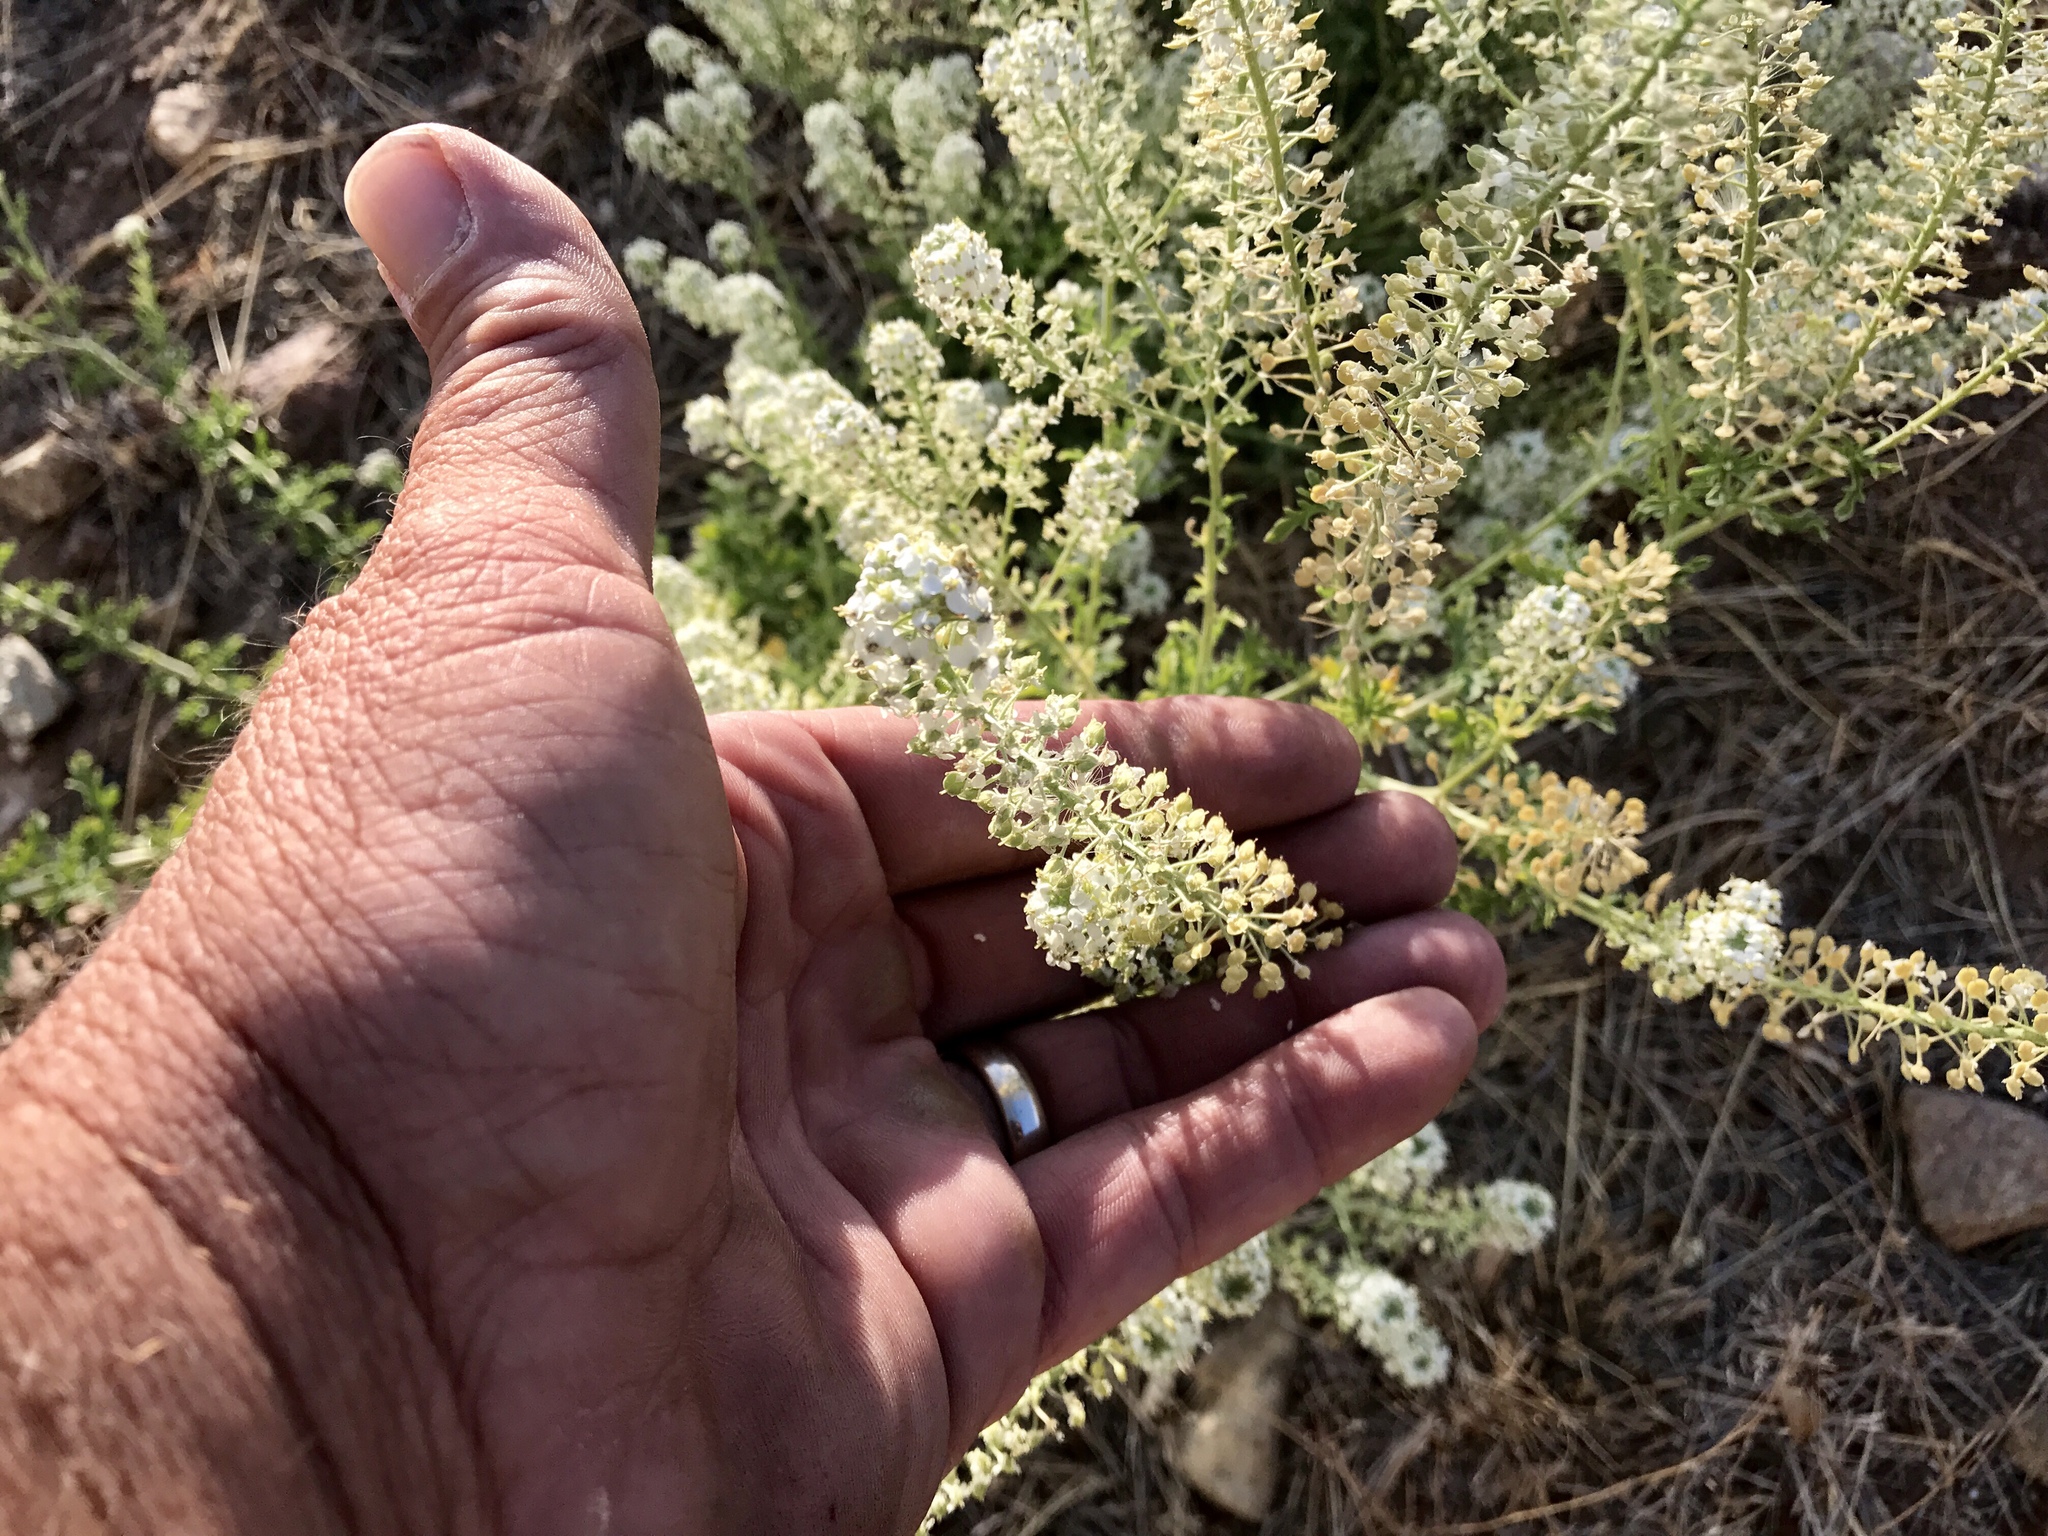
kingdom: Plantae
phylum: Tracheophyta
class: Magnoliopsida
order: Brassicales
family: Brassicaceae
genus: Lepidium
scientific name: Lepidium thurberi
